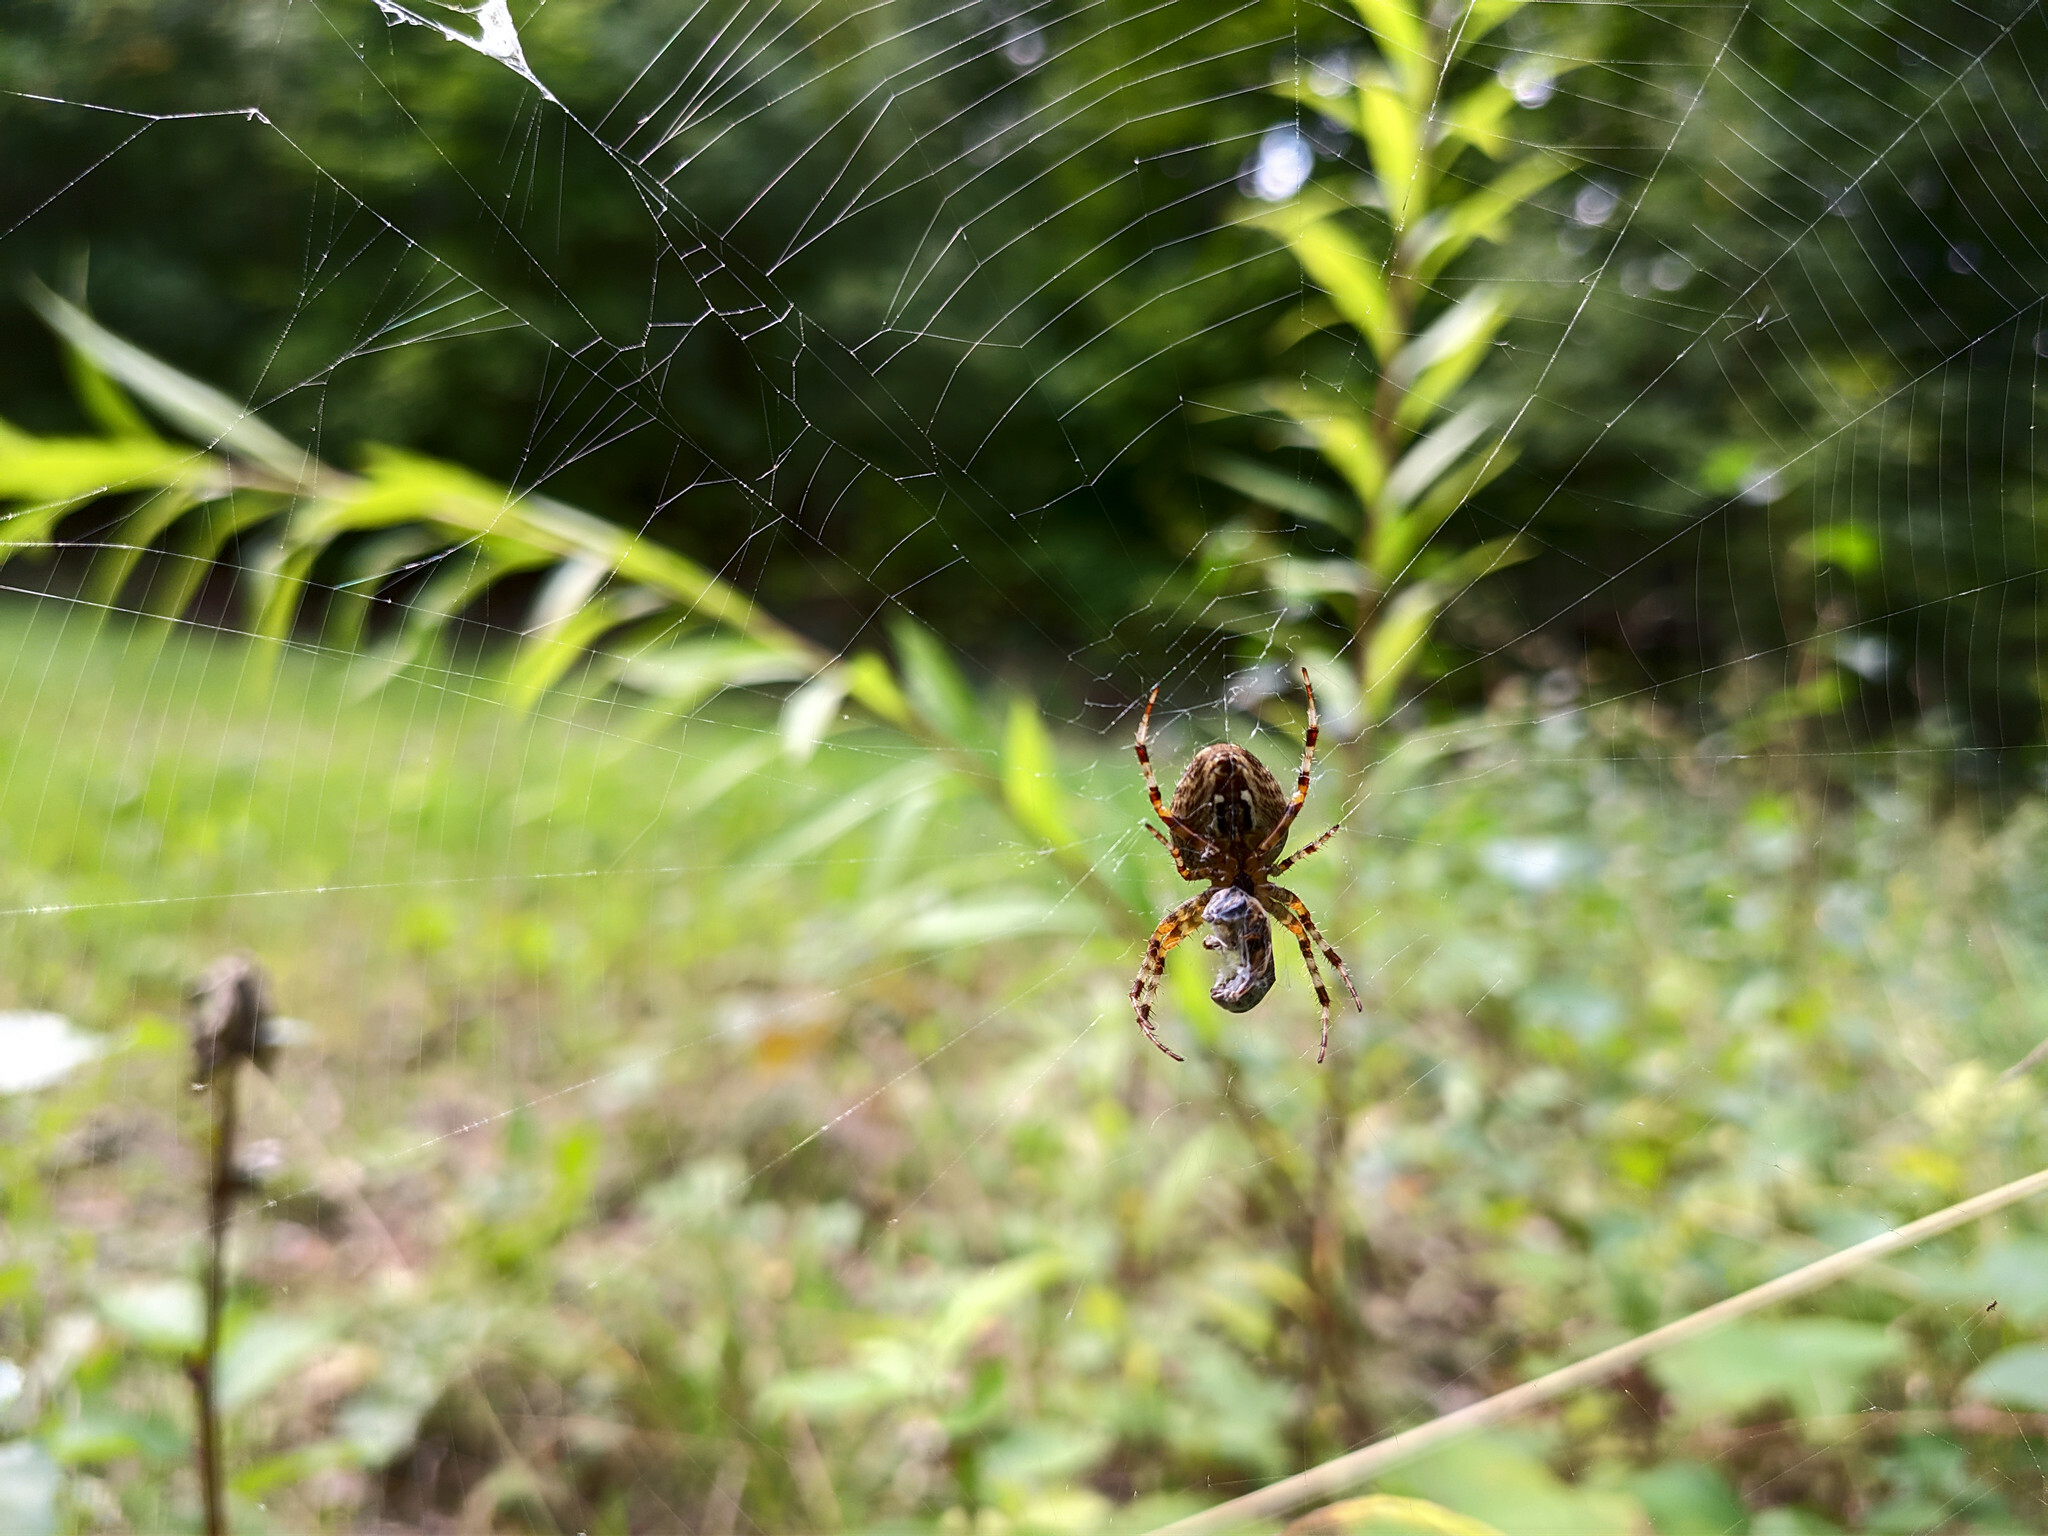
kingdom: Animalia
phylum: Arthropoda
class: Arachnida
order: Araneae
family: Araneidae
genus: Araneus
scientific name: Araneus diadematus
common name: Cross orbweaver
